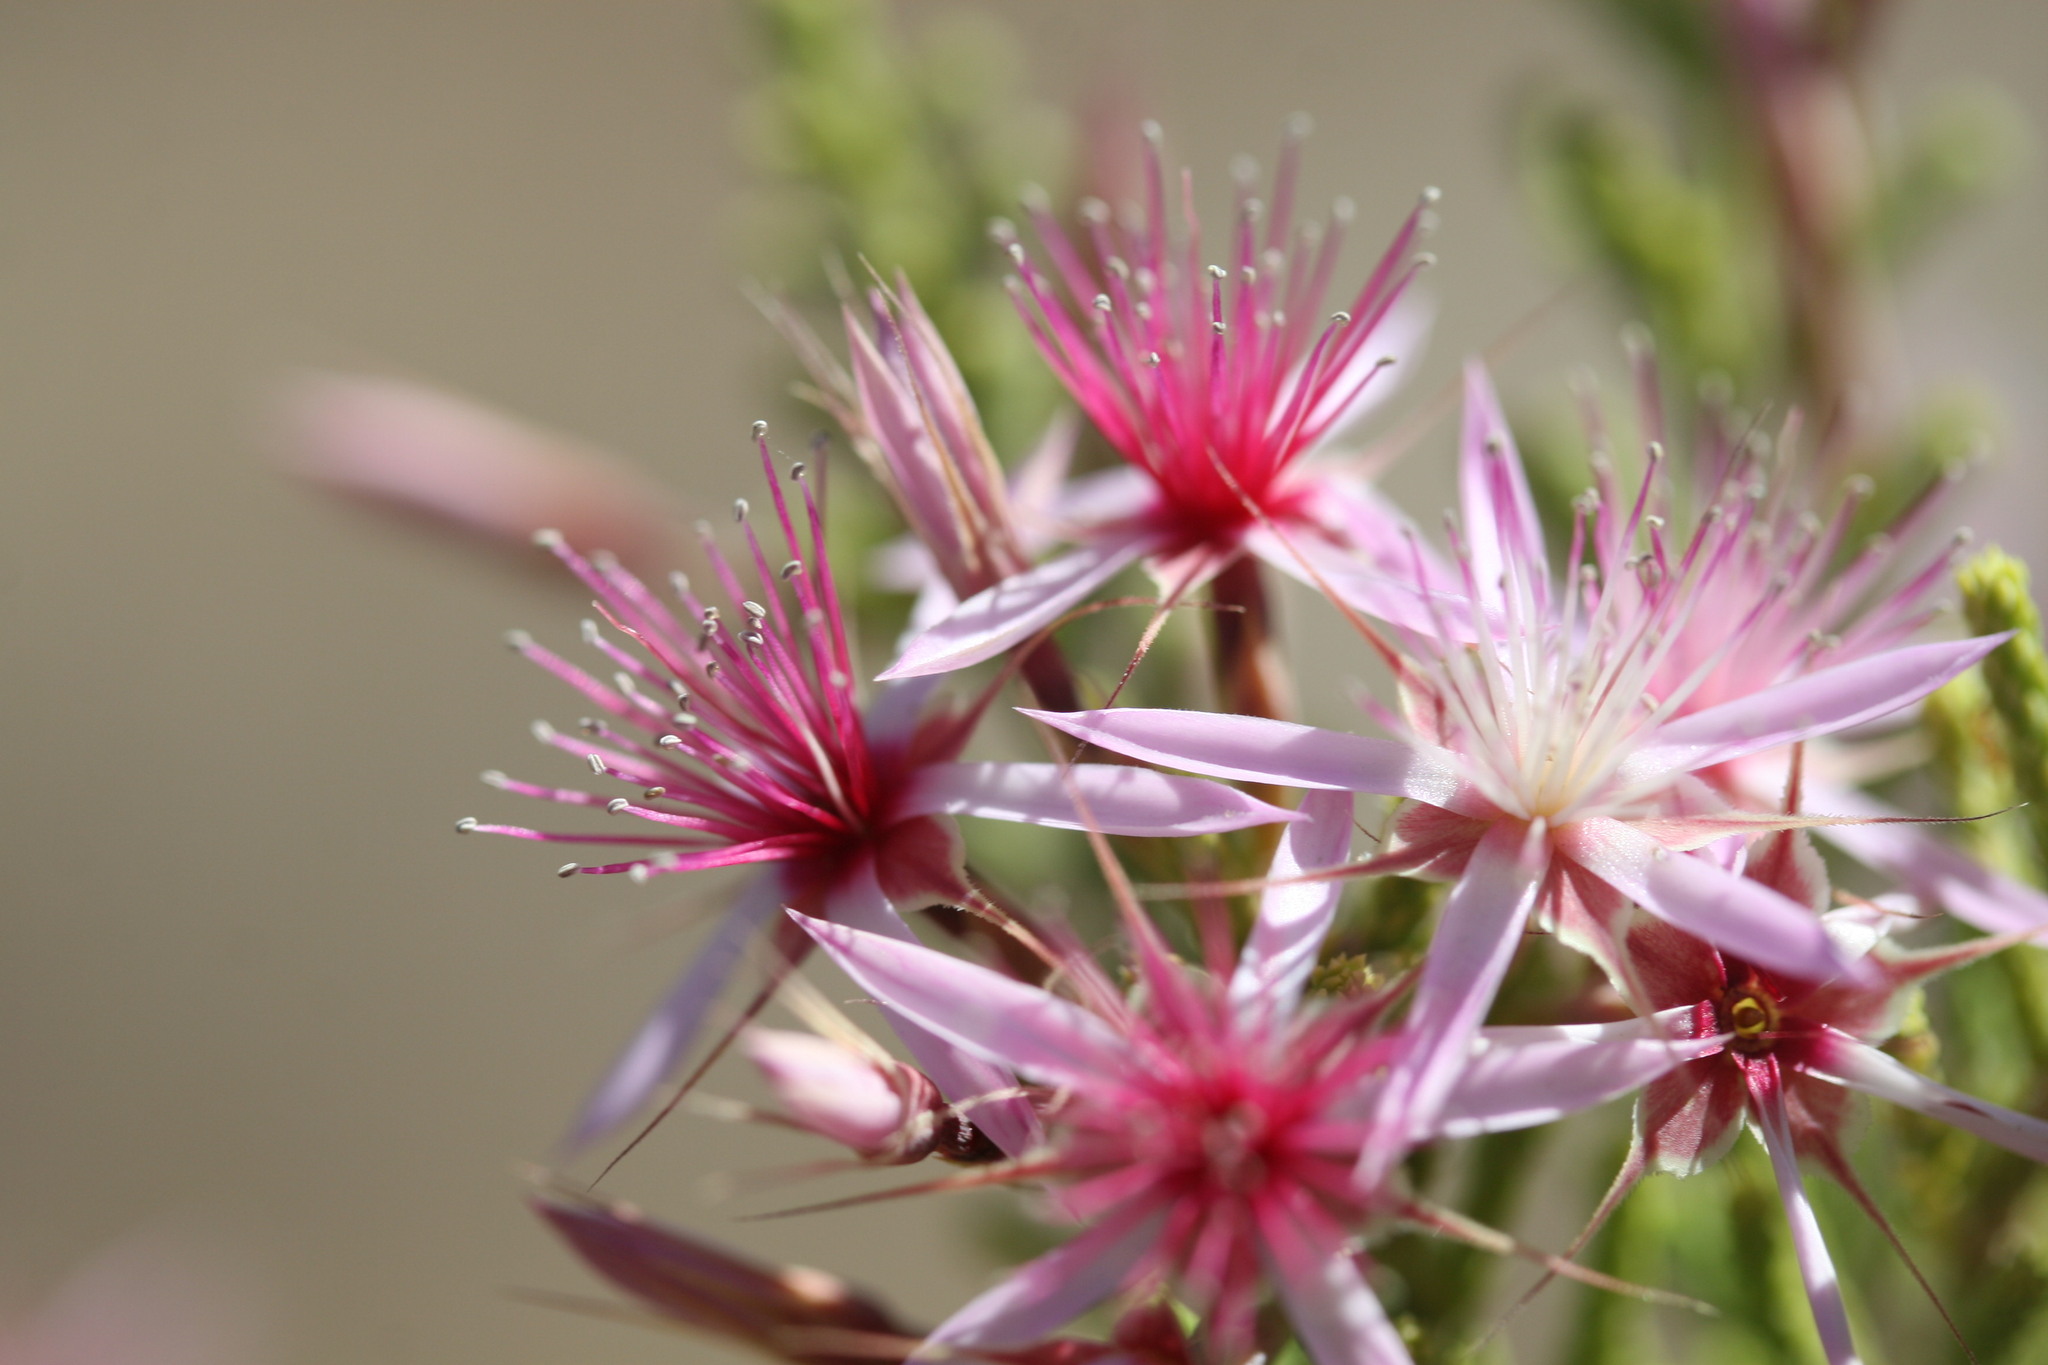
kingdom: Plantae
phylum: Tracheophyta
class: Magnoliopsida
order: Myrtales
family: Myrtaceae
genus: Calytrix
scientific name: Calytrix exstipulata
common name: Kimberley heather
